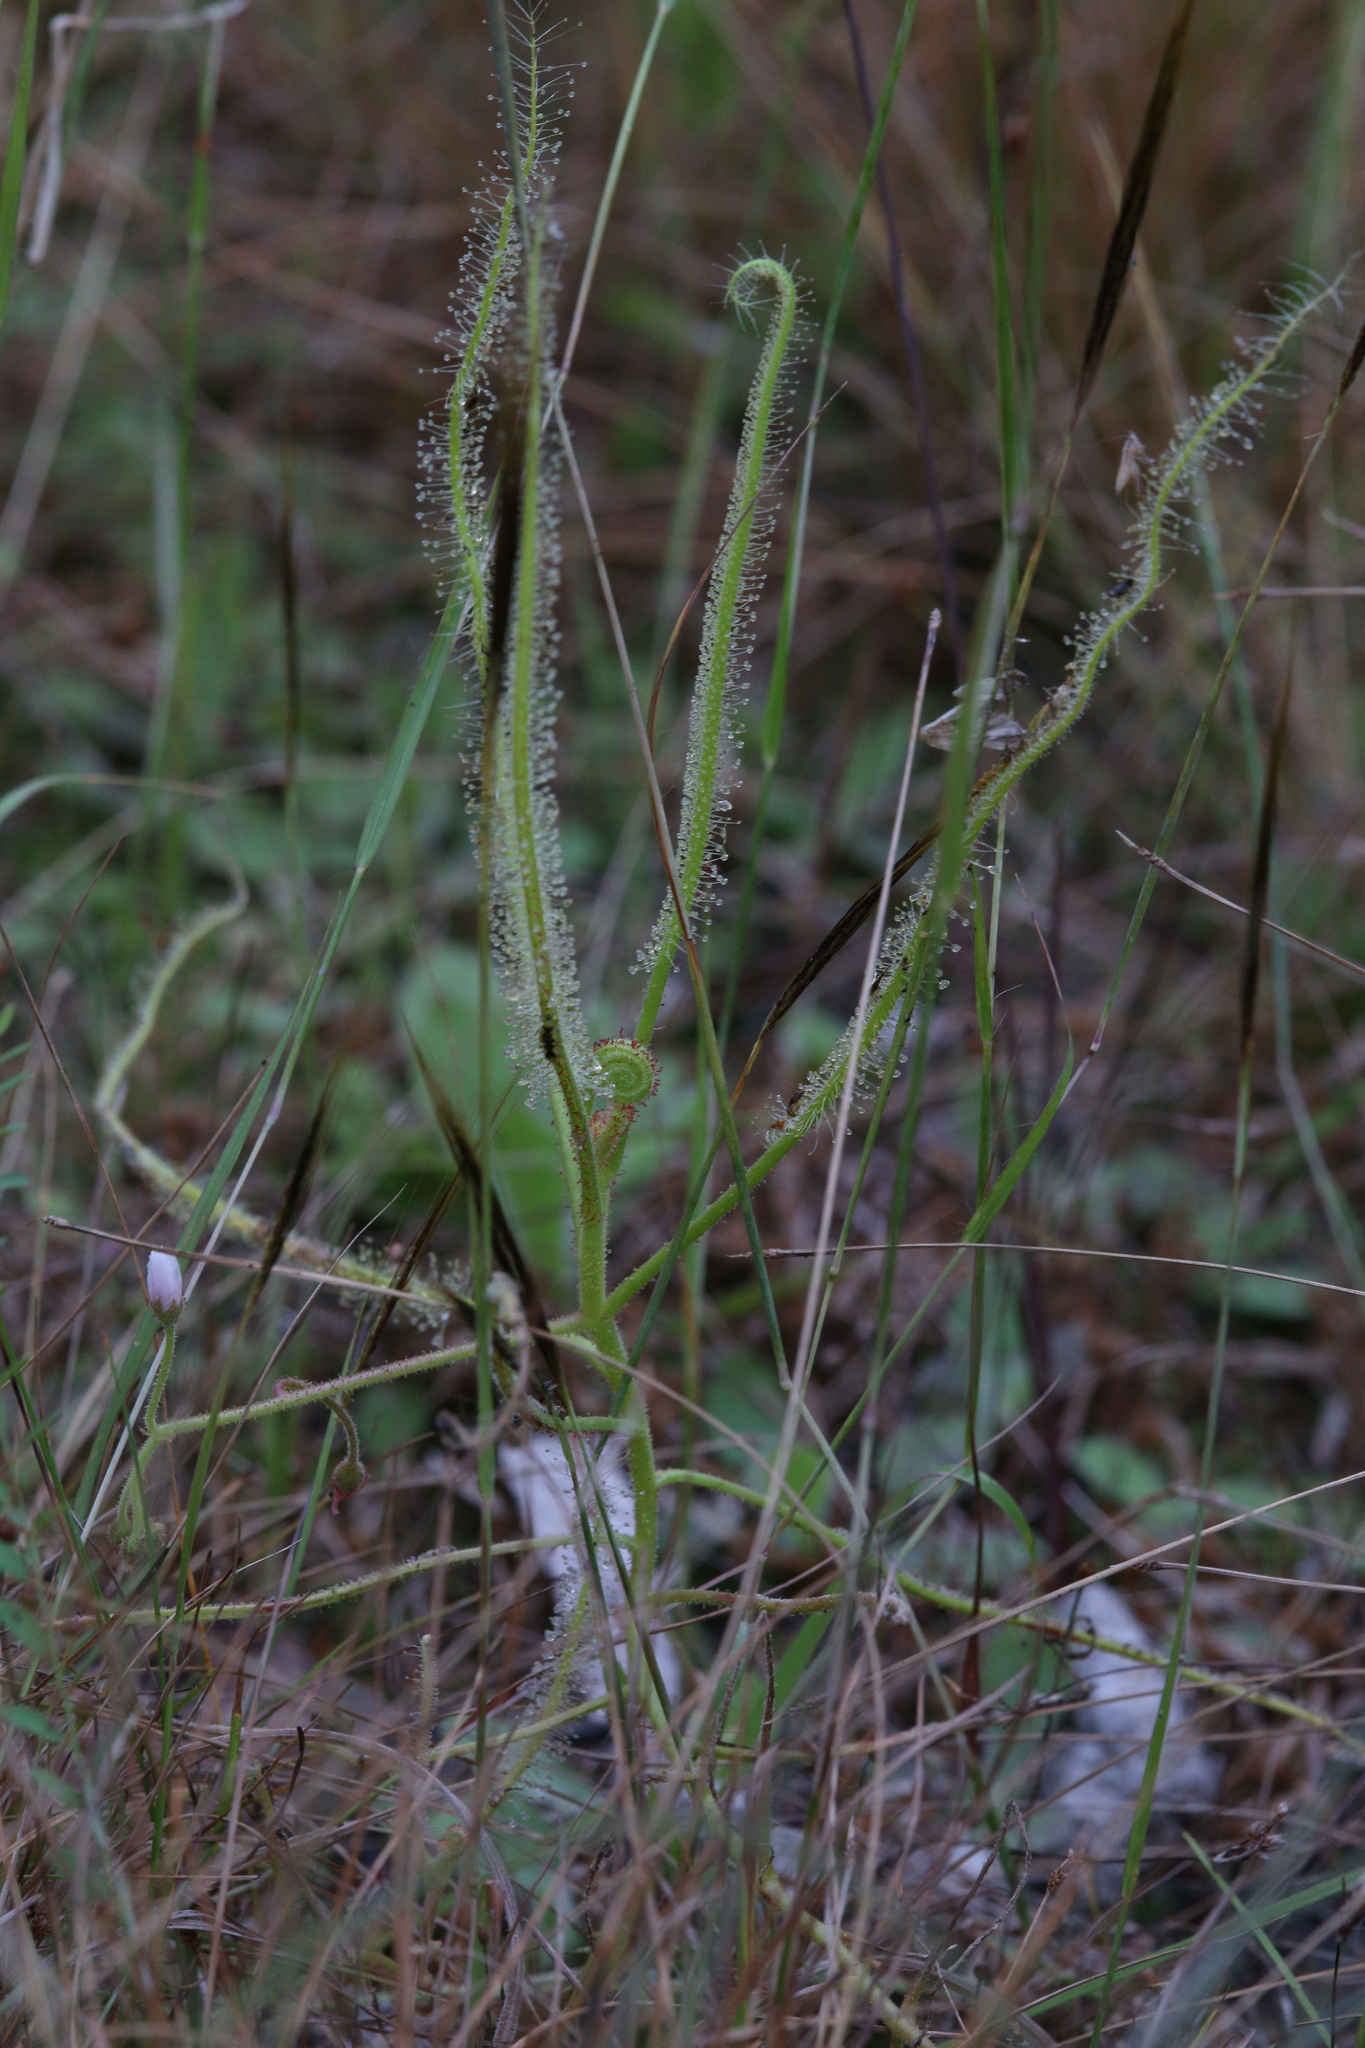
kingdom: Plantae
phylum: Tracheophyta
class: Magnoliopsida
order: Caryophyllales
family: Droseraceae
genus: Drosera
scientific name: Drosera indica
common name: Indian sundew
